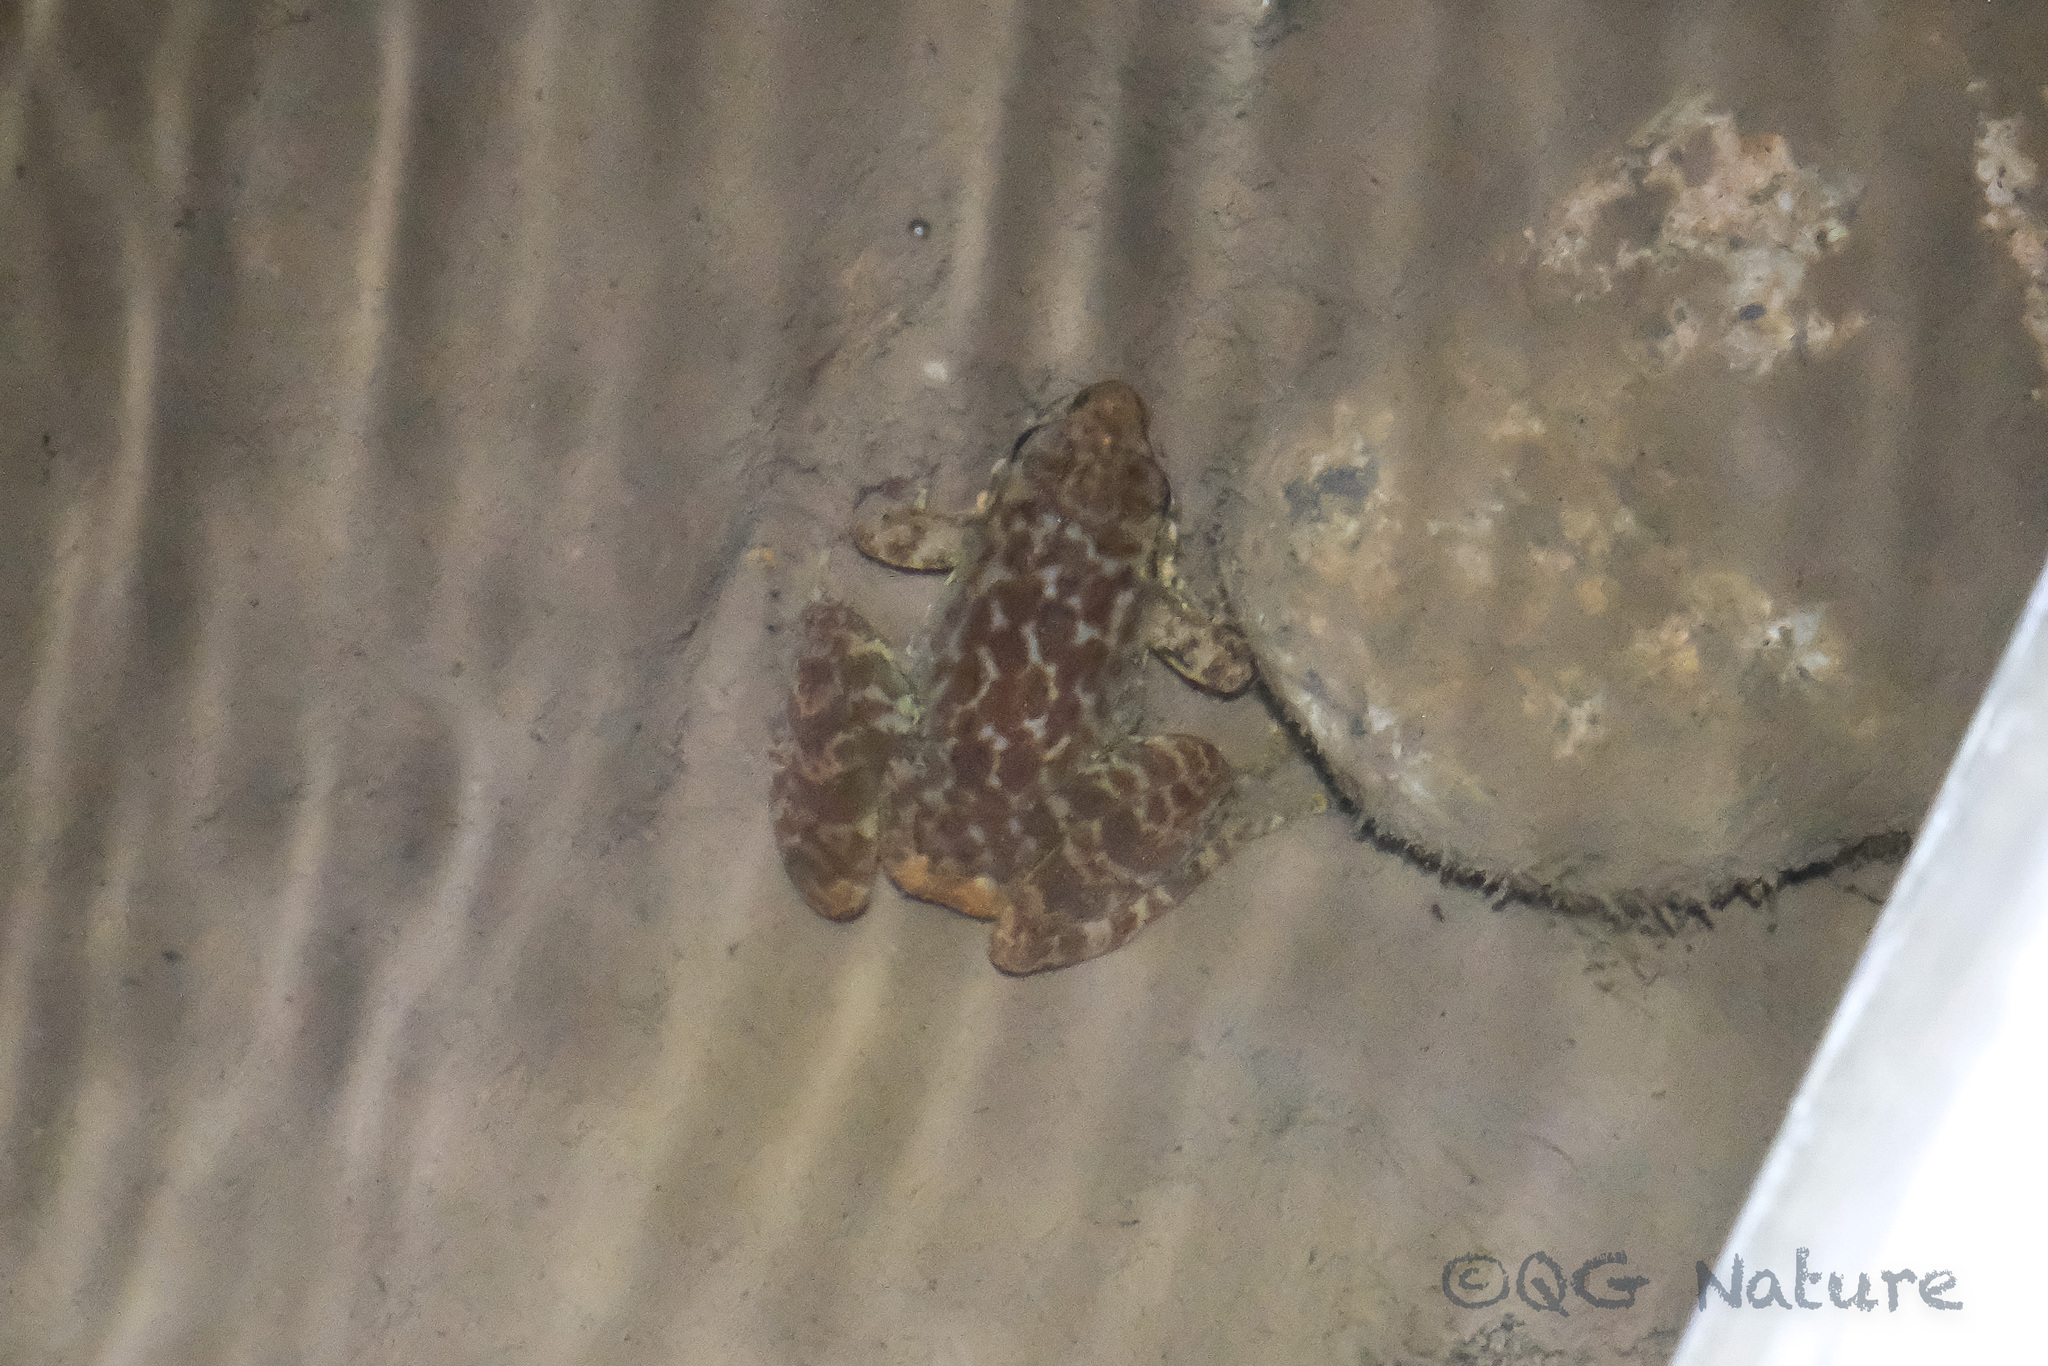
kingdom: Animalia
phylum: Chordata
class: Amphibia
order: Anura
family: Ranidae
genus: Amolops
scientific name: Amolops wuyiensis
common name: Sanchiang sucker frog
